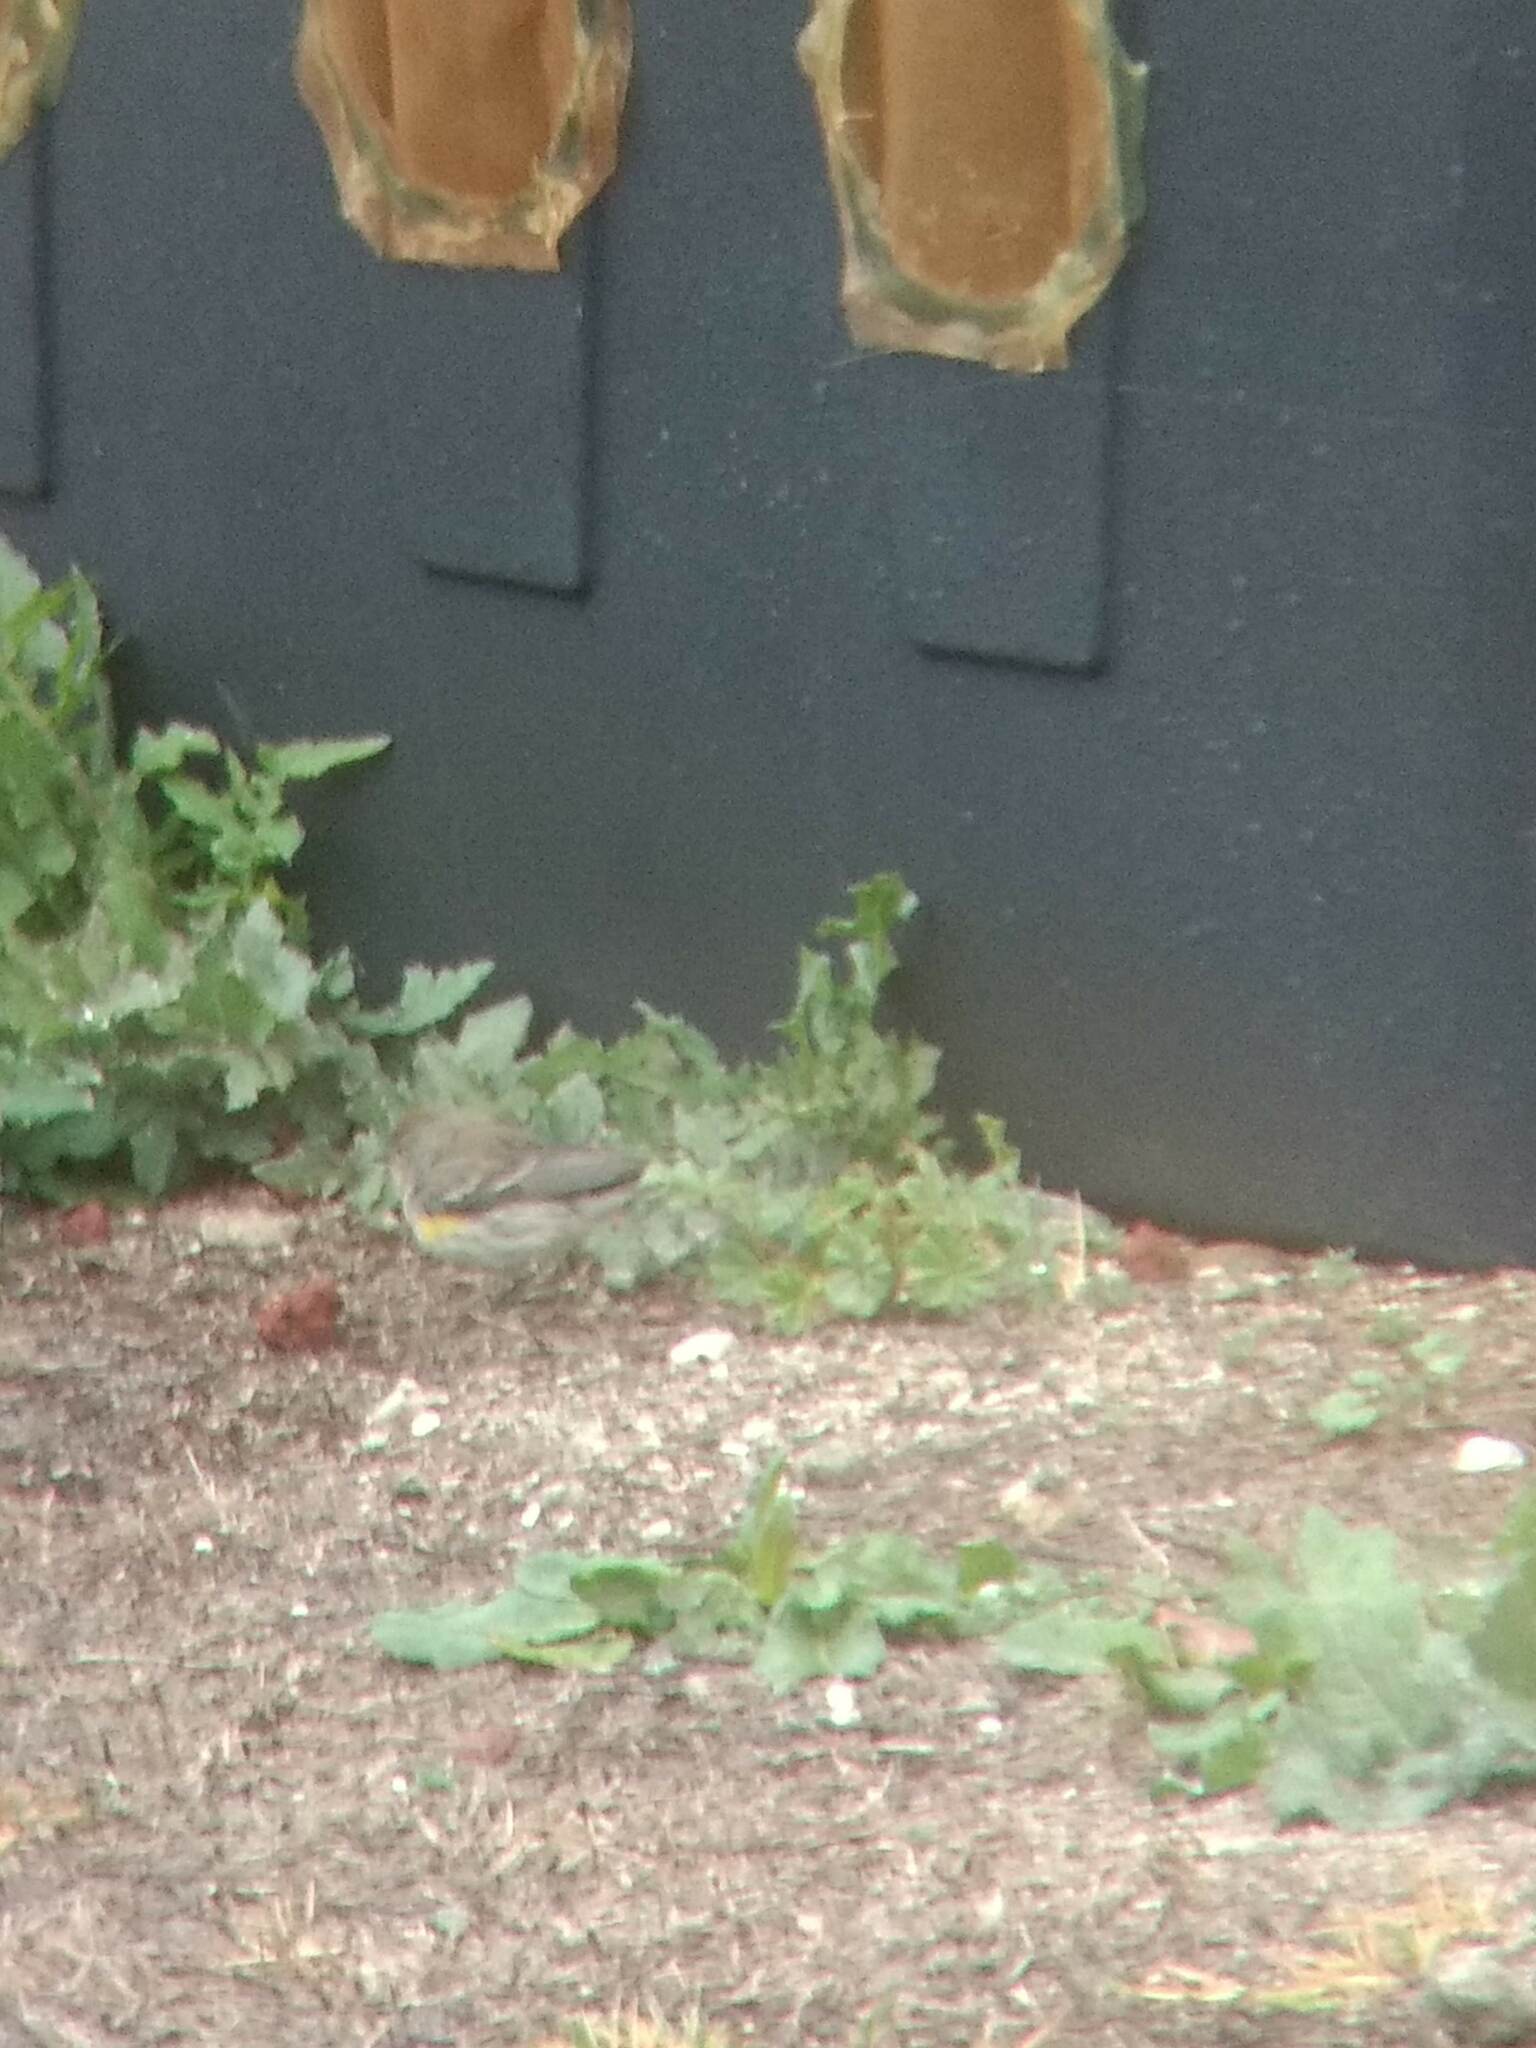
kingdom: Animalia
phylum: Chordata
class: Aves
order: Passeriformes
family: Parulidae
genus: Setophaga
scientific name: Setophaga coronata
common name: Myrtle warbler
